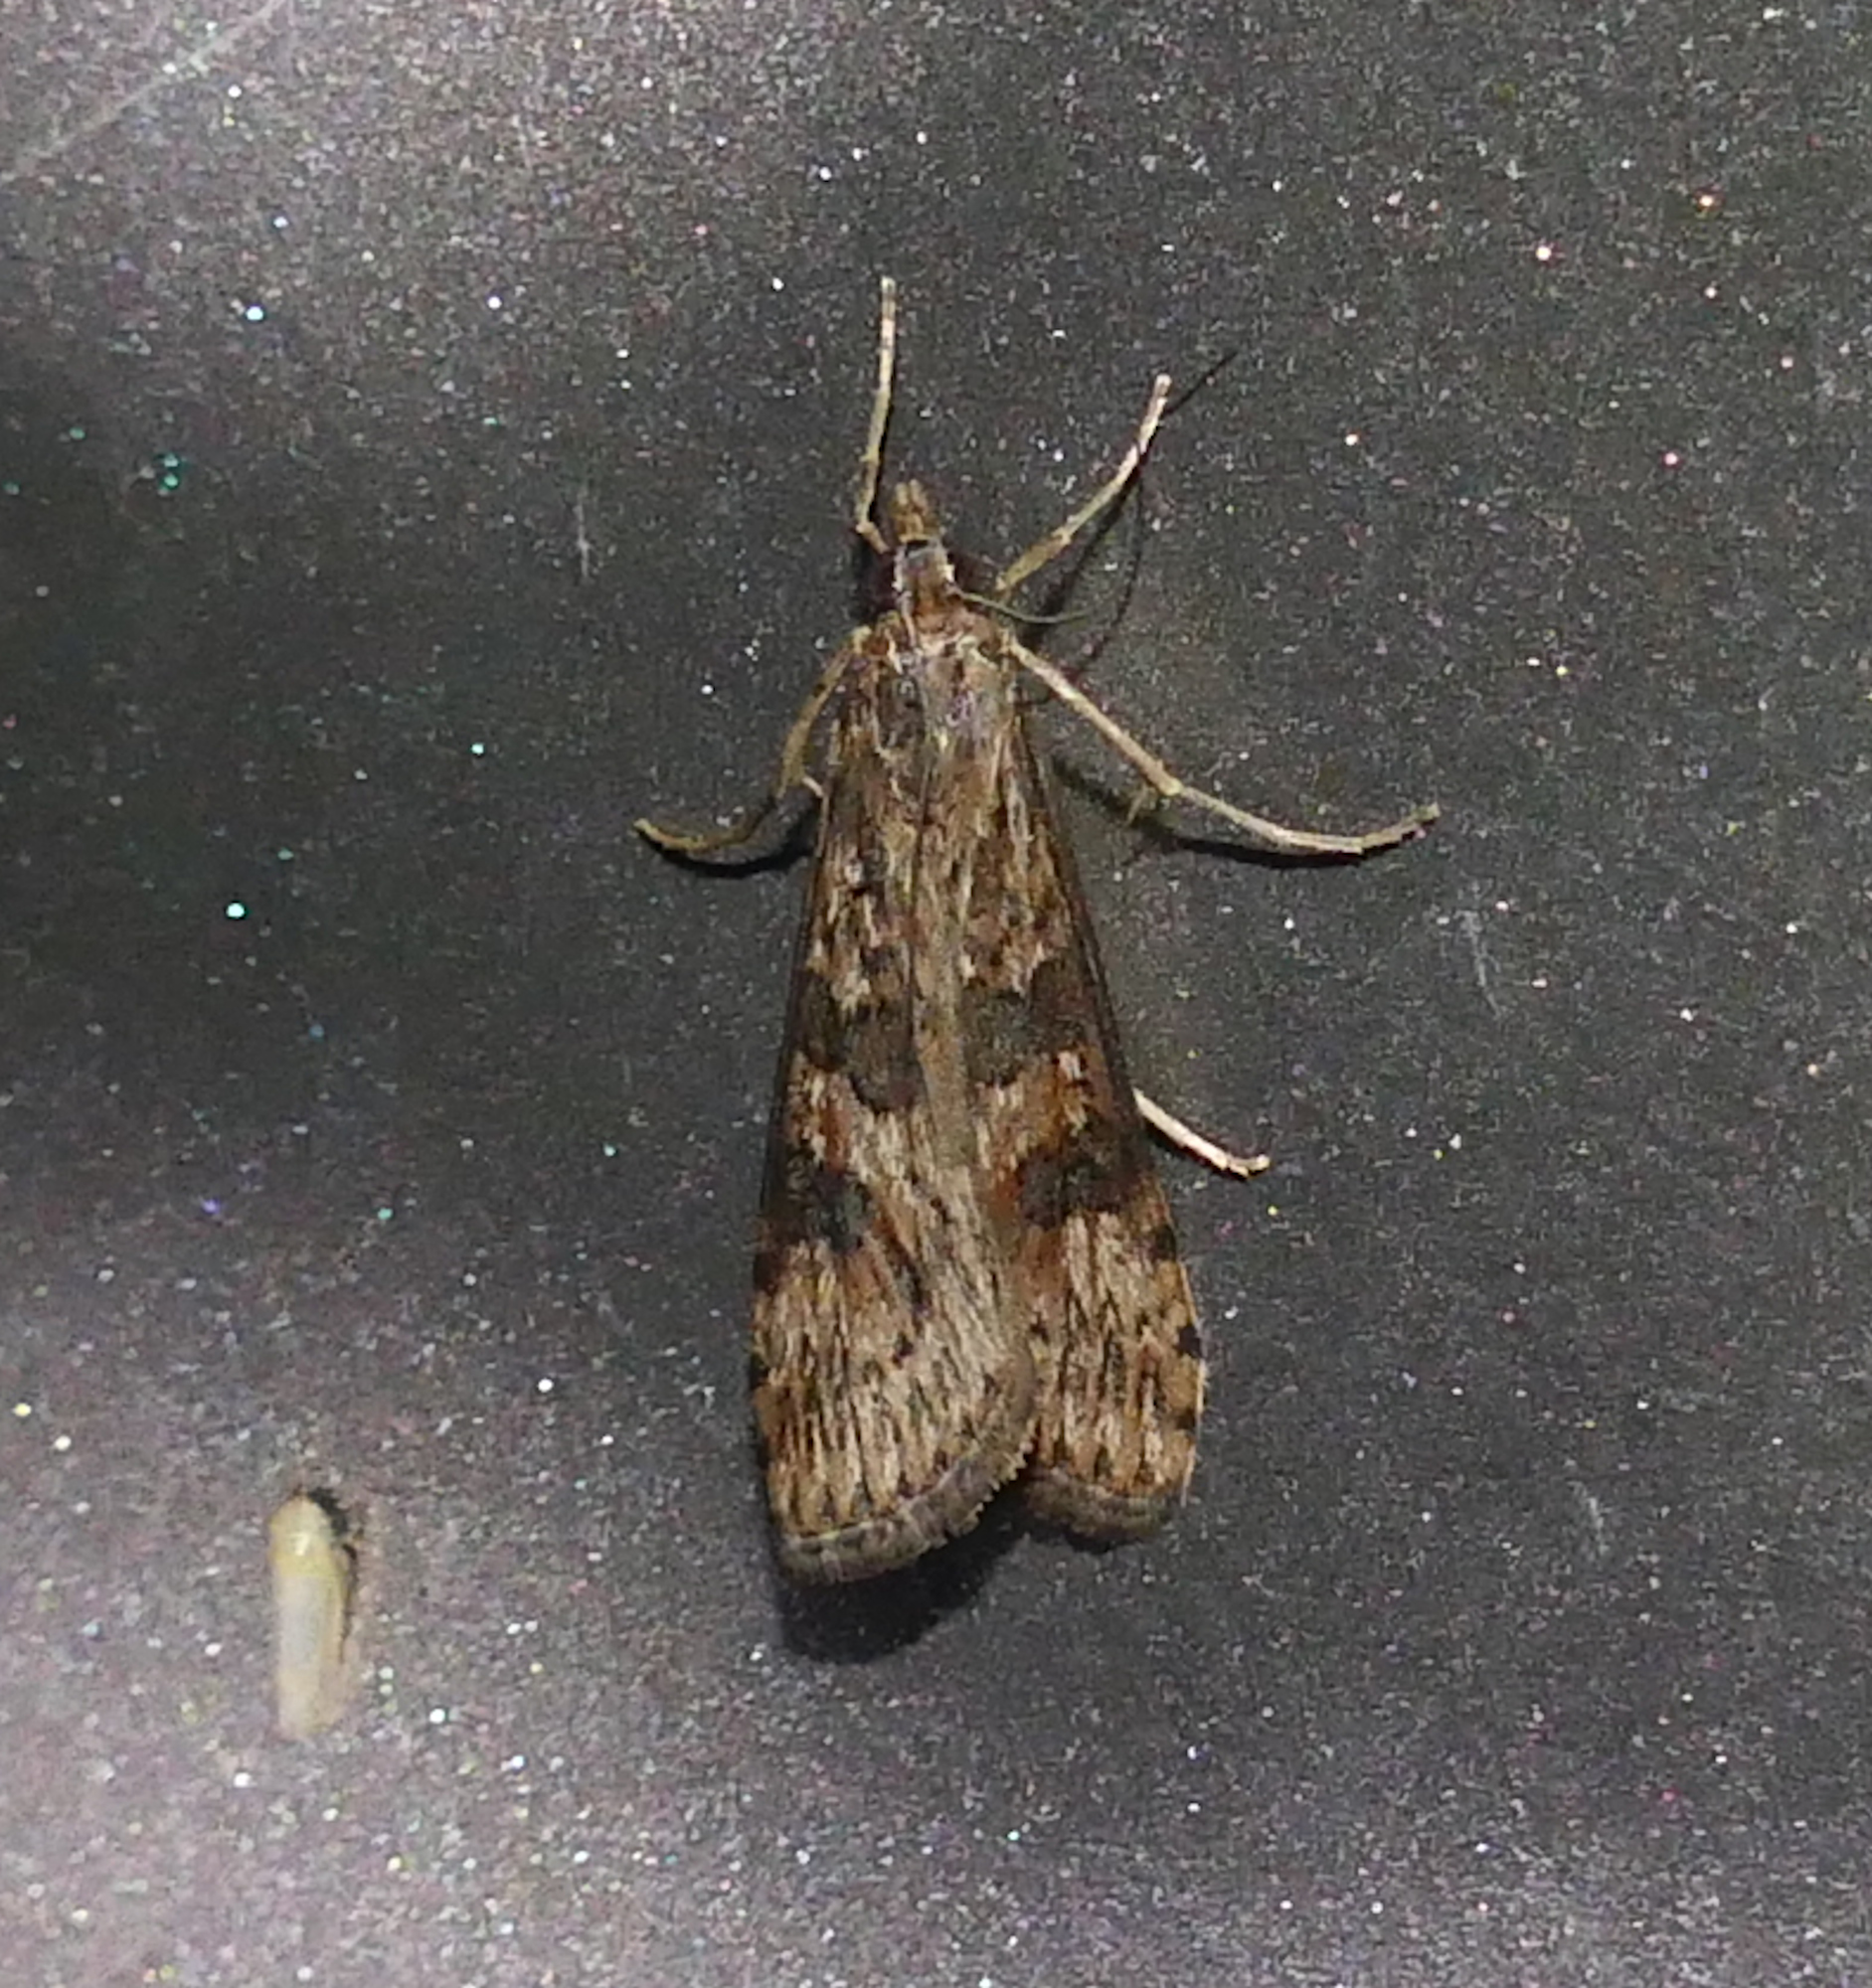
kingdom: Animalia
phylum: Arthropoda
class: Insecta
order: Lepidoptera
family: Crambidae
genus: Nomophila
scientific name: Nomophila nearctica
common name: American rush veneer
